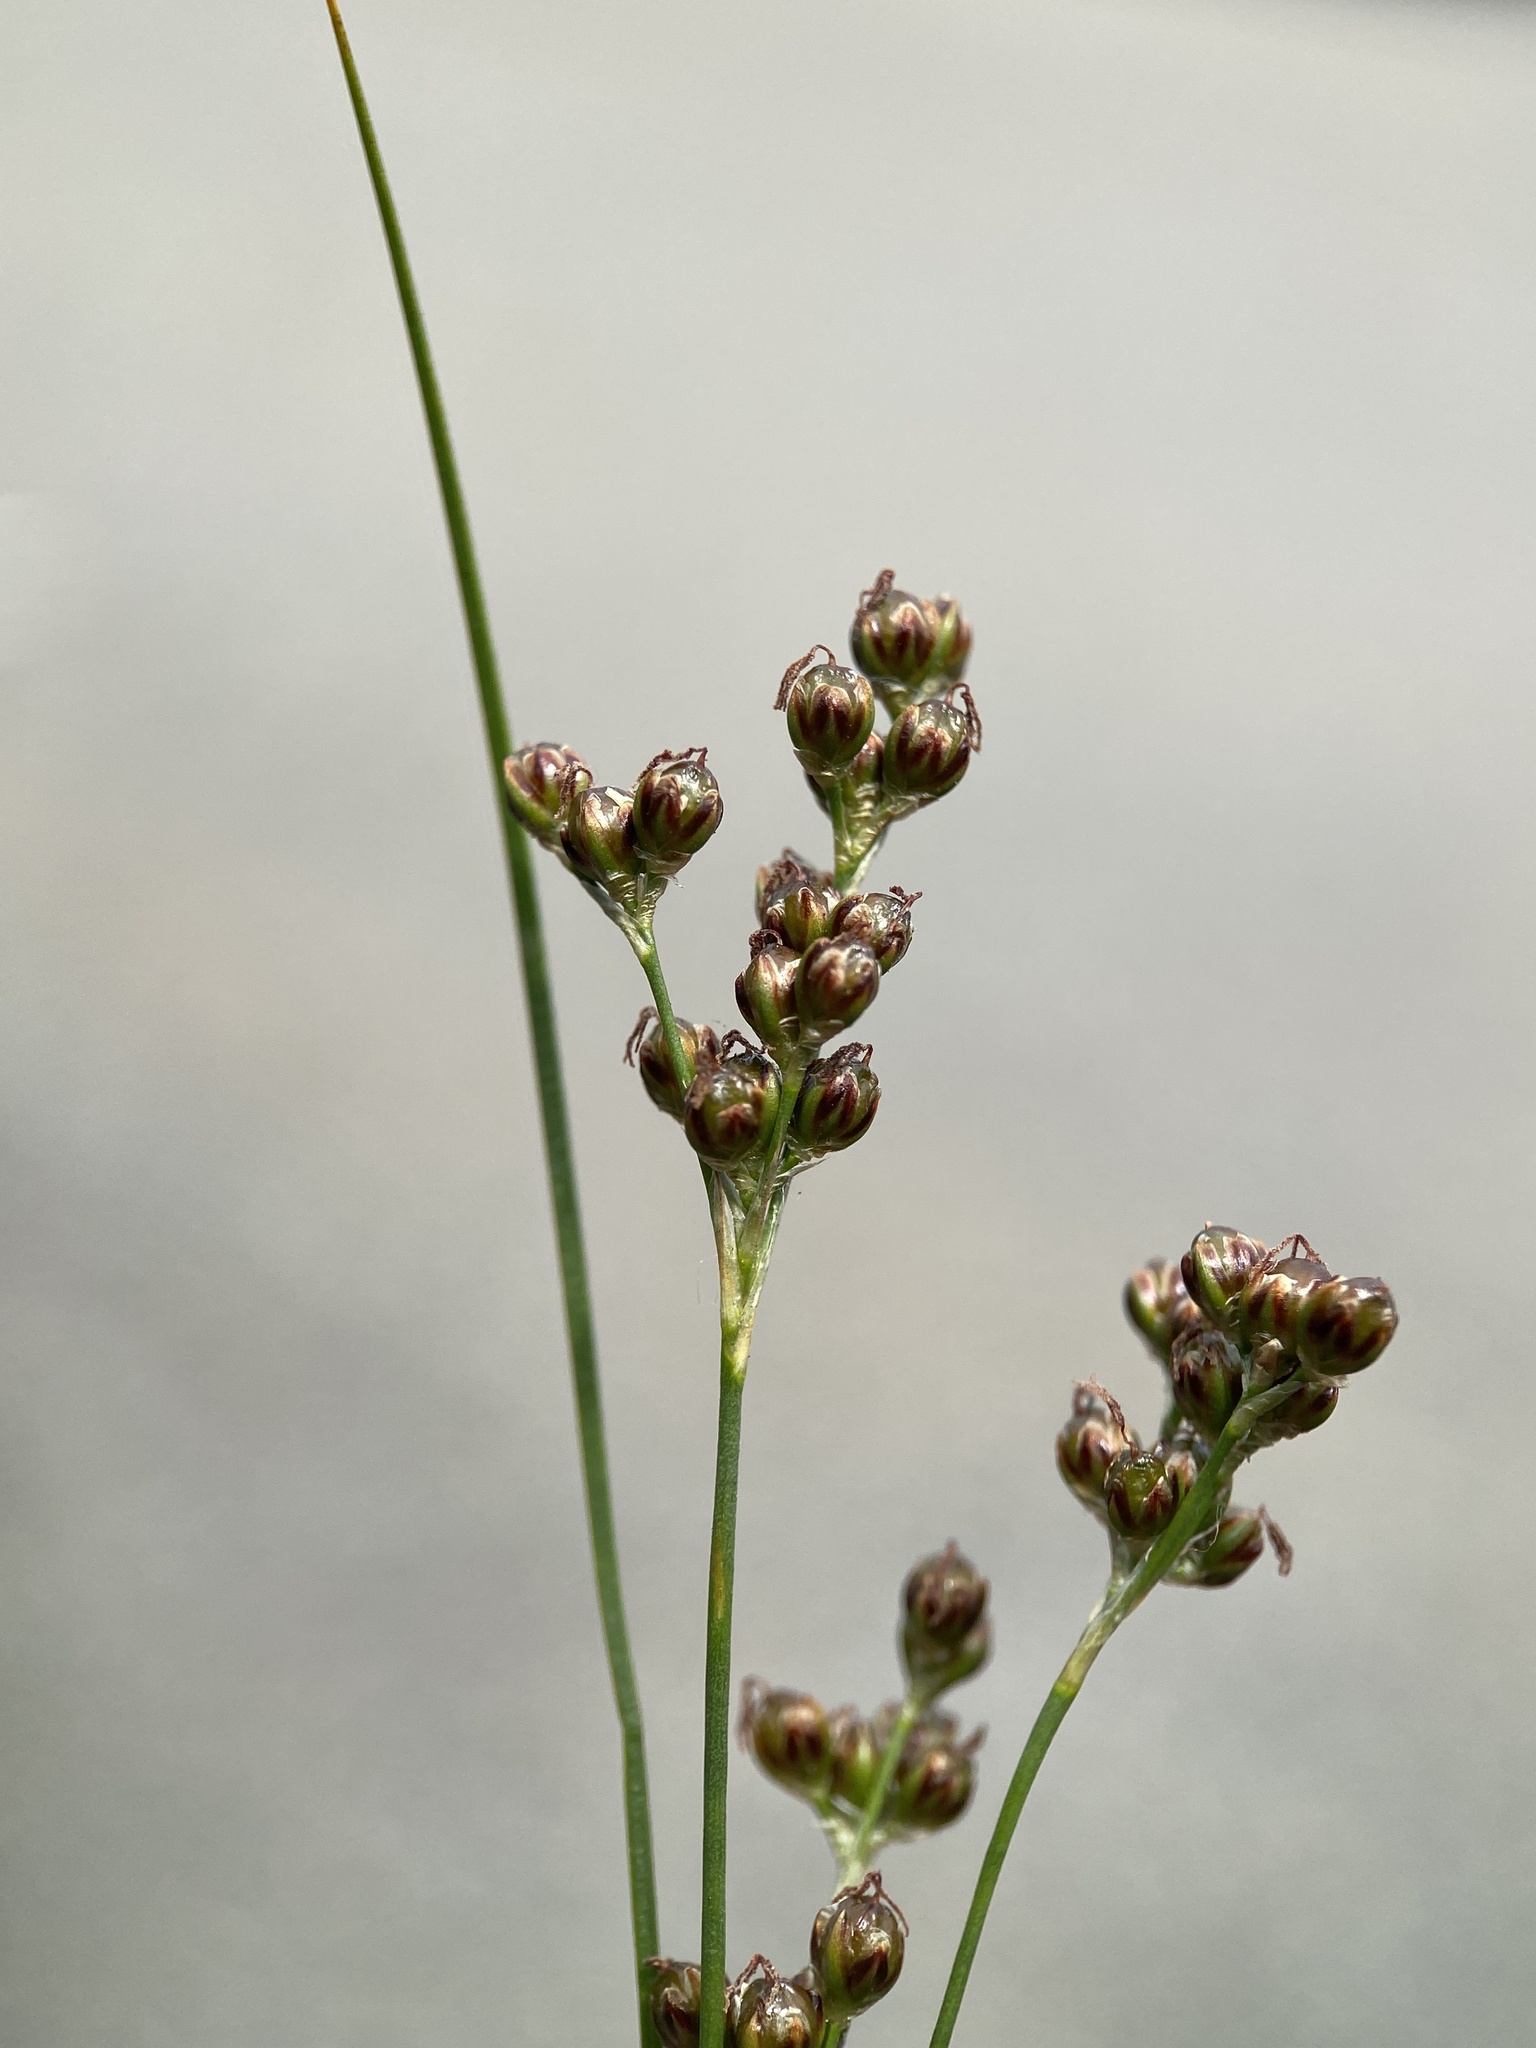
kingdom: Plantae
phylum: Tracheophyta
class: Liliopsida
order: Poales
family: Juncaceae
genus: Juncus
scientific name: Juncus compressus
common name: Round-fruited rush
